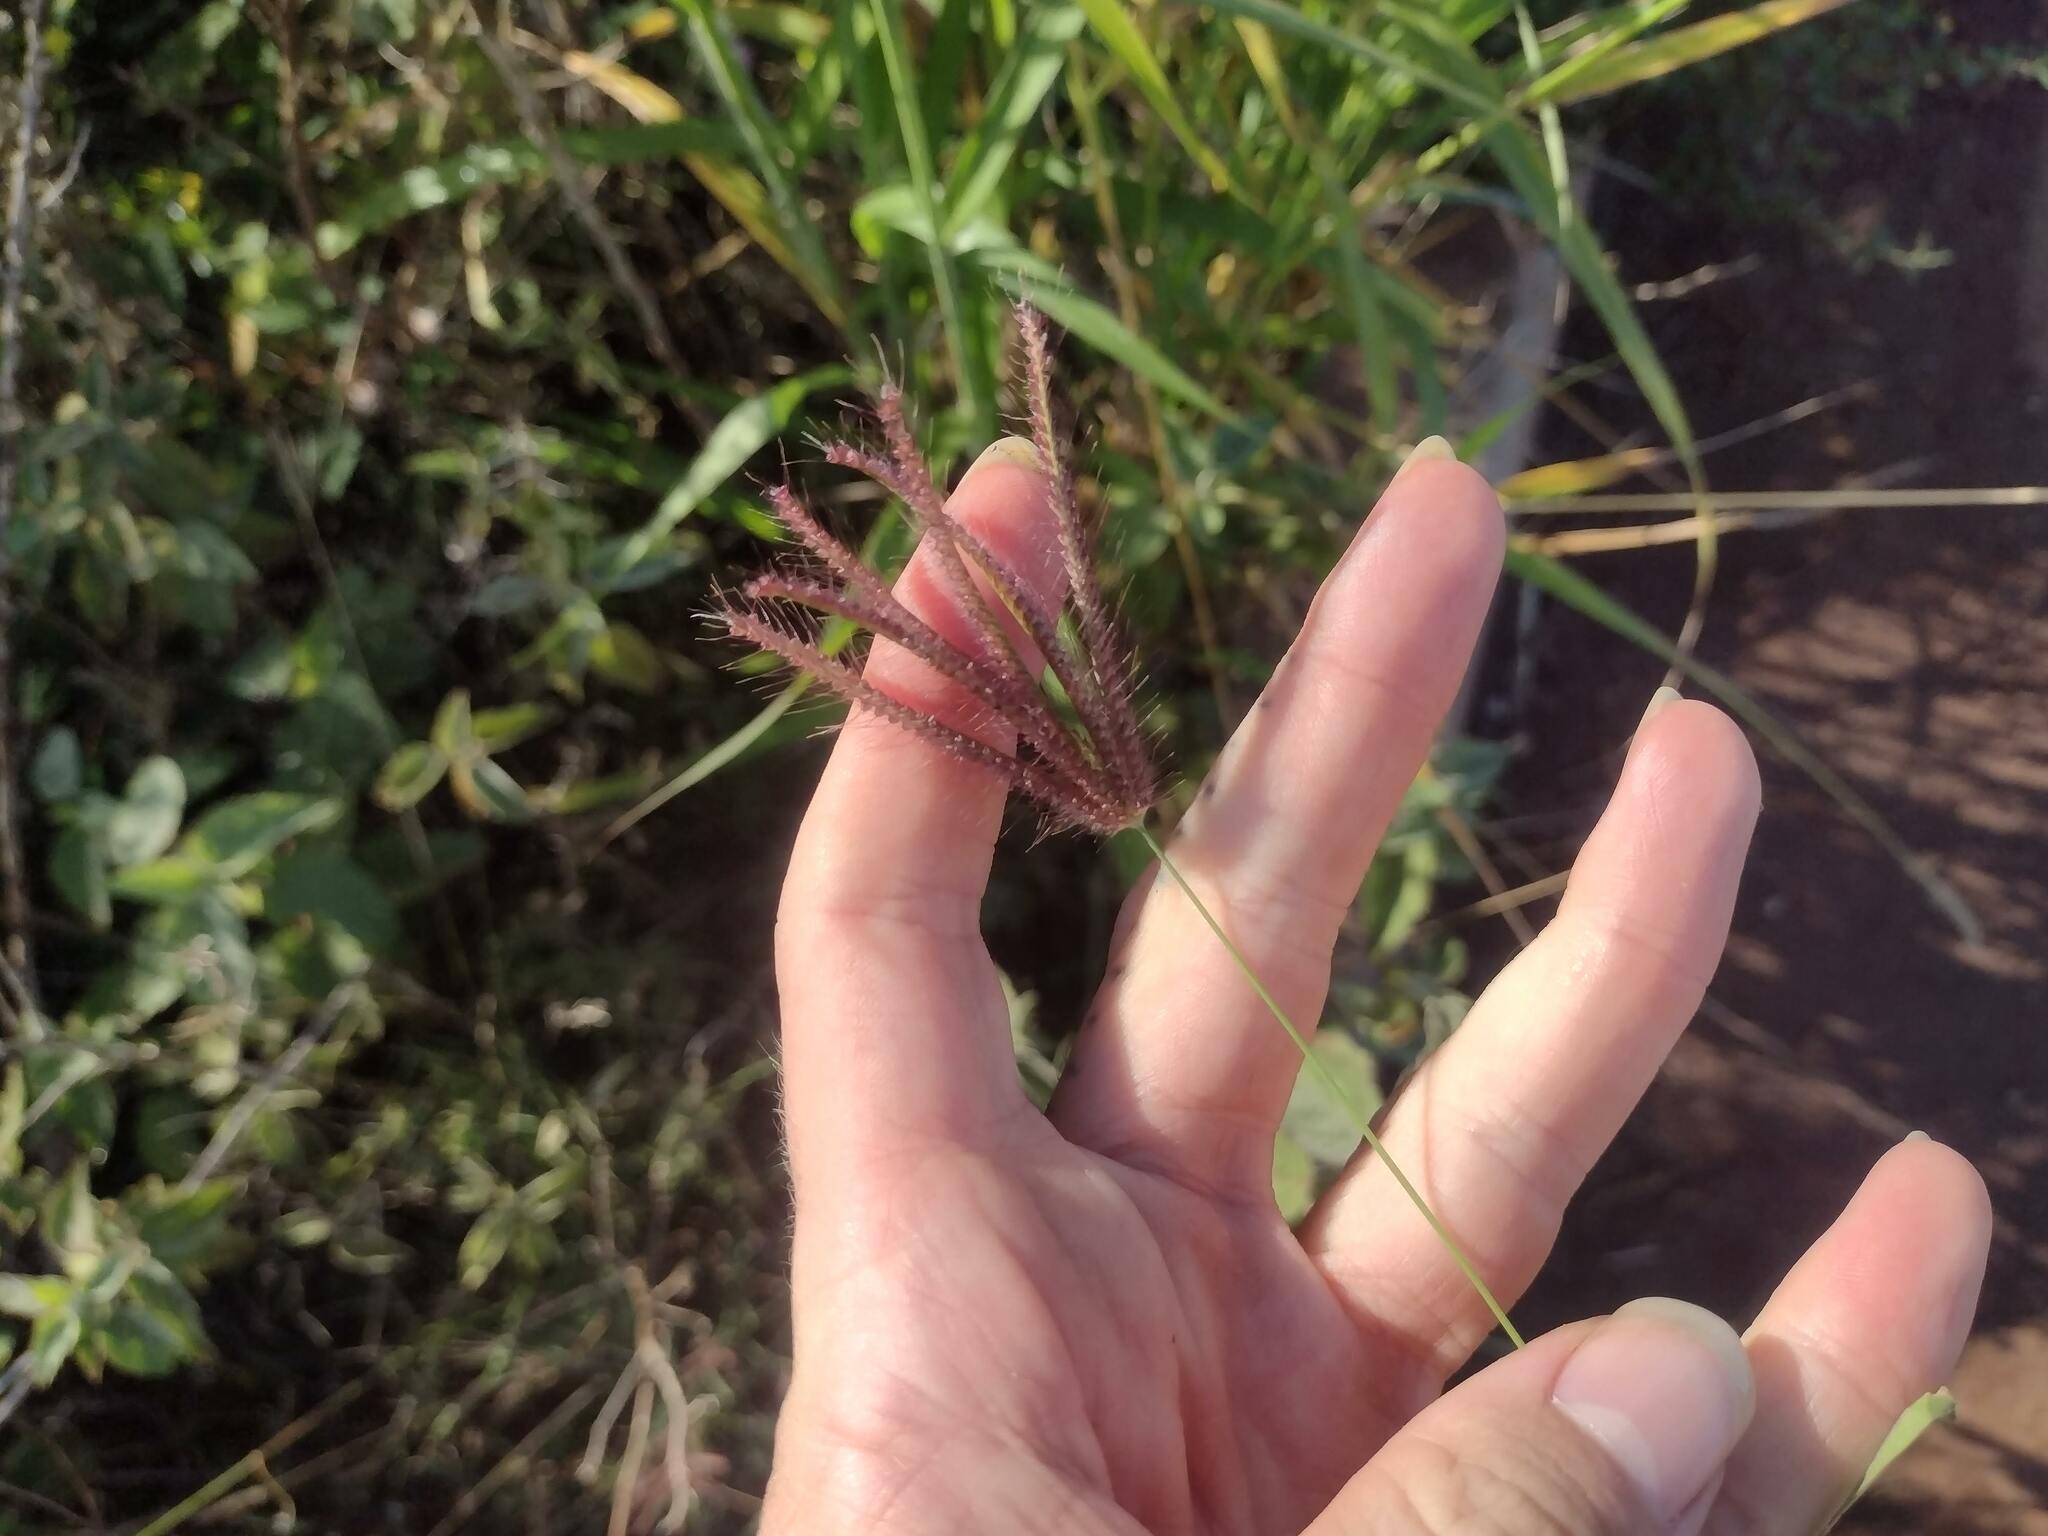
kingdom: Plantae
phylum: Tracheophyta
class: Liliopsida
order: Poales
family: Poaceae
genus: Chloris
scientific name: Chloris barbata
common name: Swollen fingergrass
